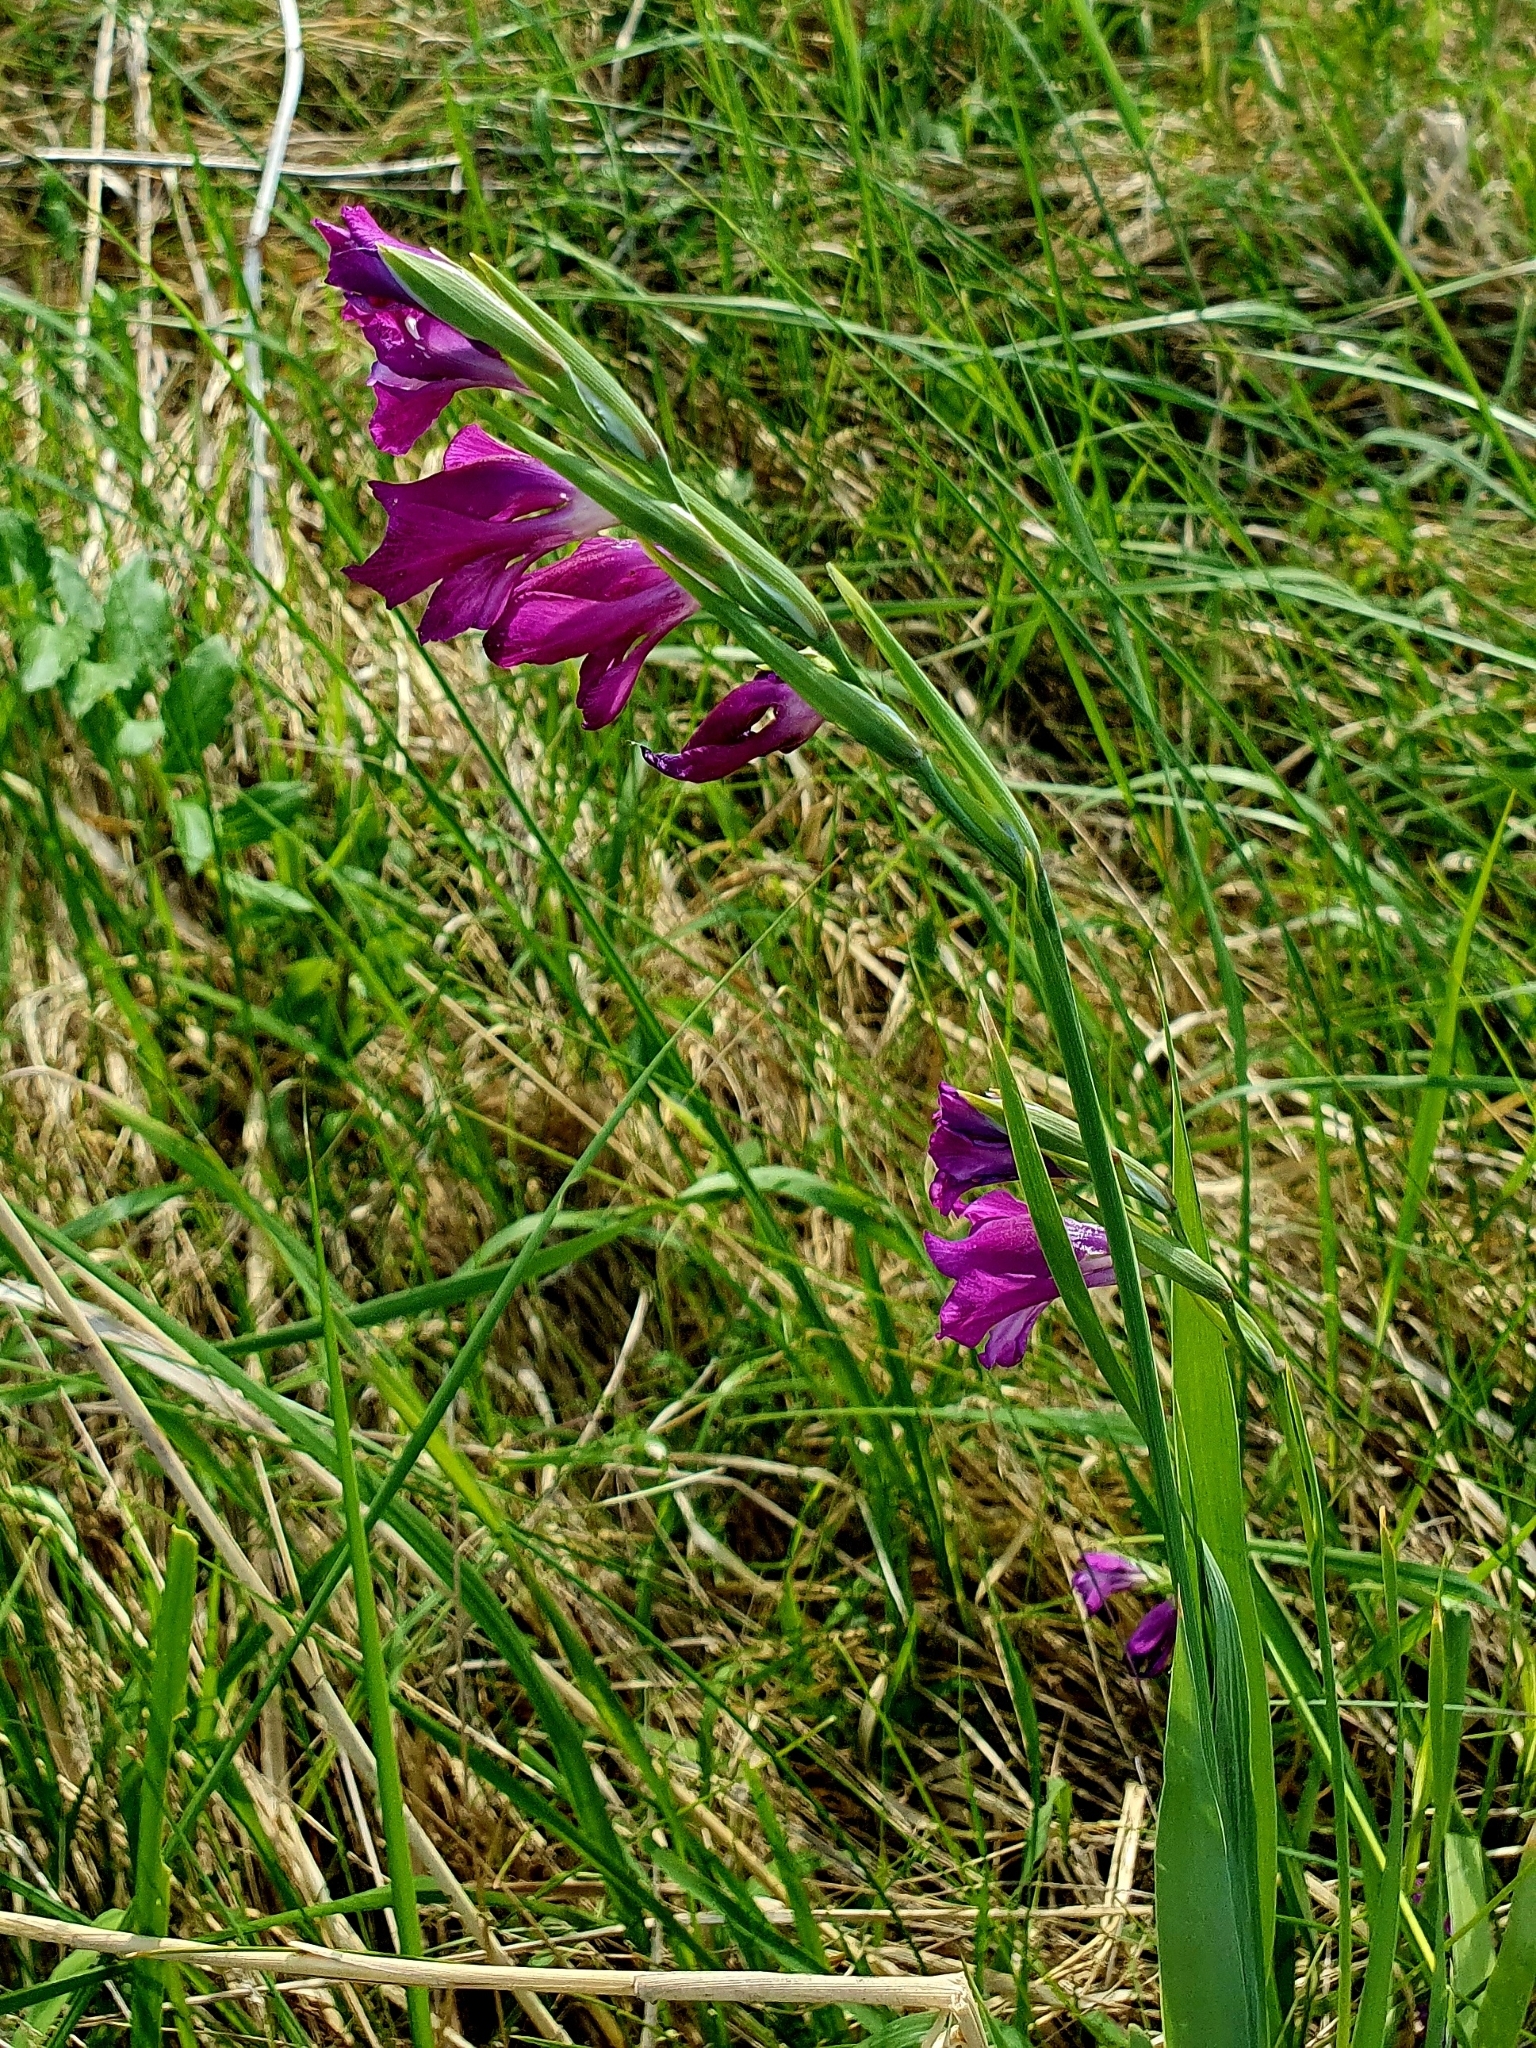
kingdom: Plantae
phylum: Tracheophyta
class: Liliopsida
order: Asparagales
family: Iridaceae
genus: Gladiolus
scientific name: Gladiolus tenuis
